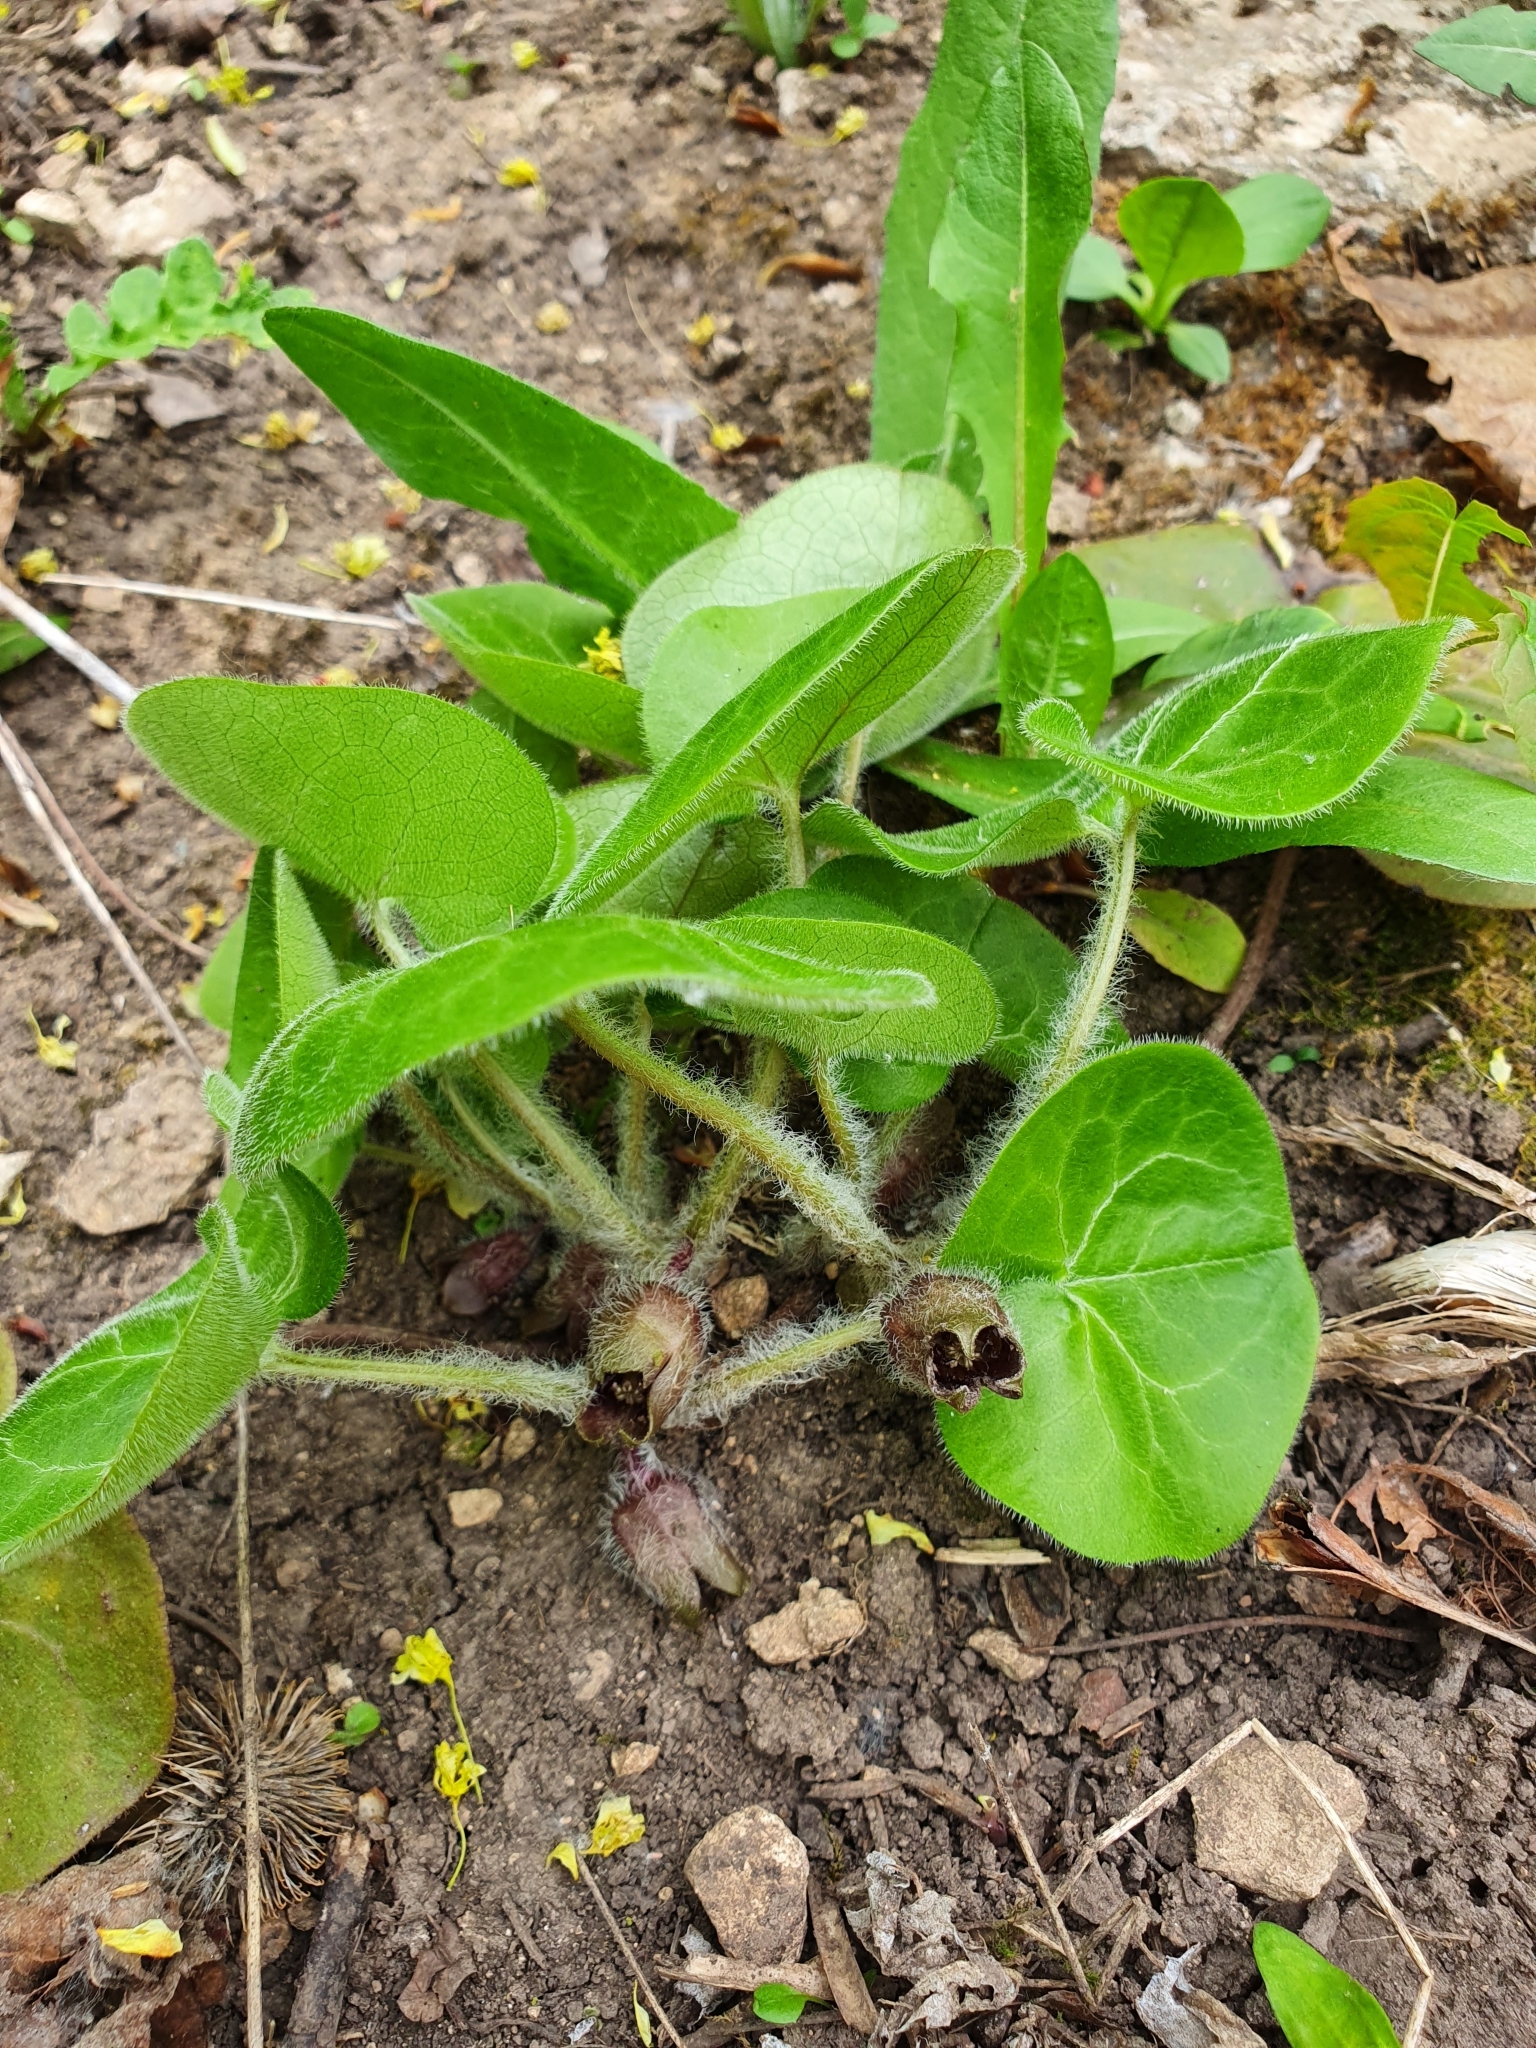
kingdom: Plantae
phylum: Tracheophyta
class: Magnoliopsida
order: Piperales
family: Aristolochiaceae
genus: Asarum
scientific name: Asarum europaeum
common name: Asarabacca
